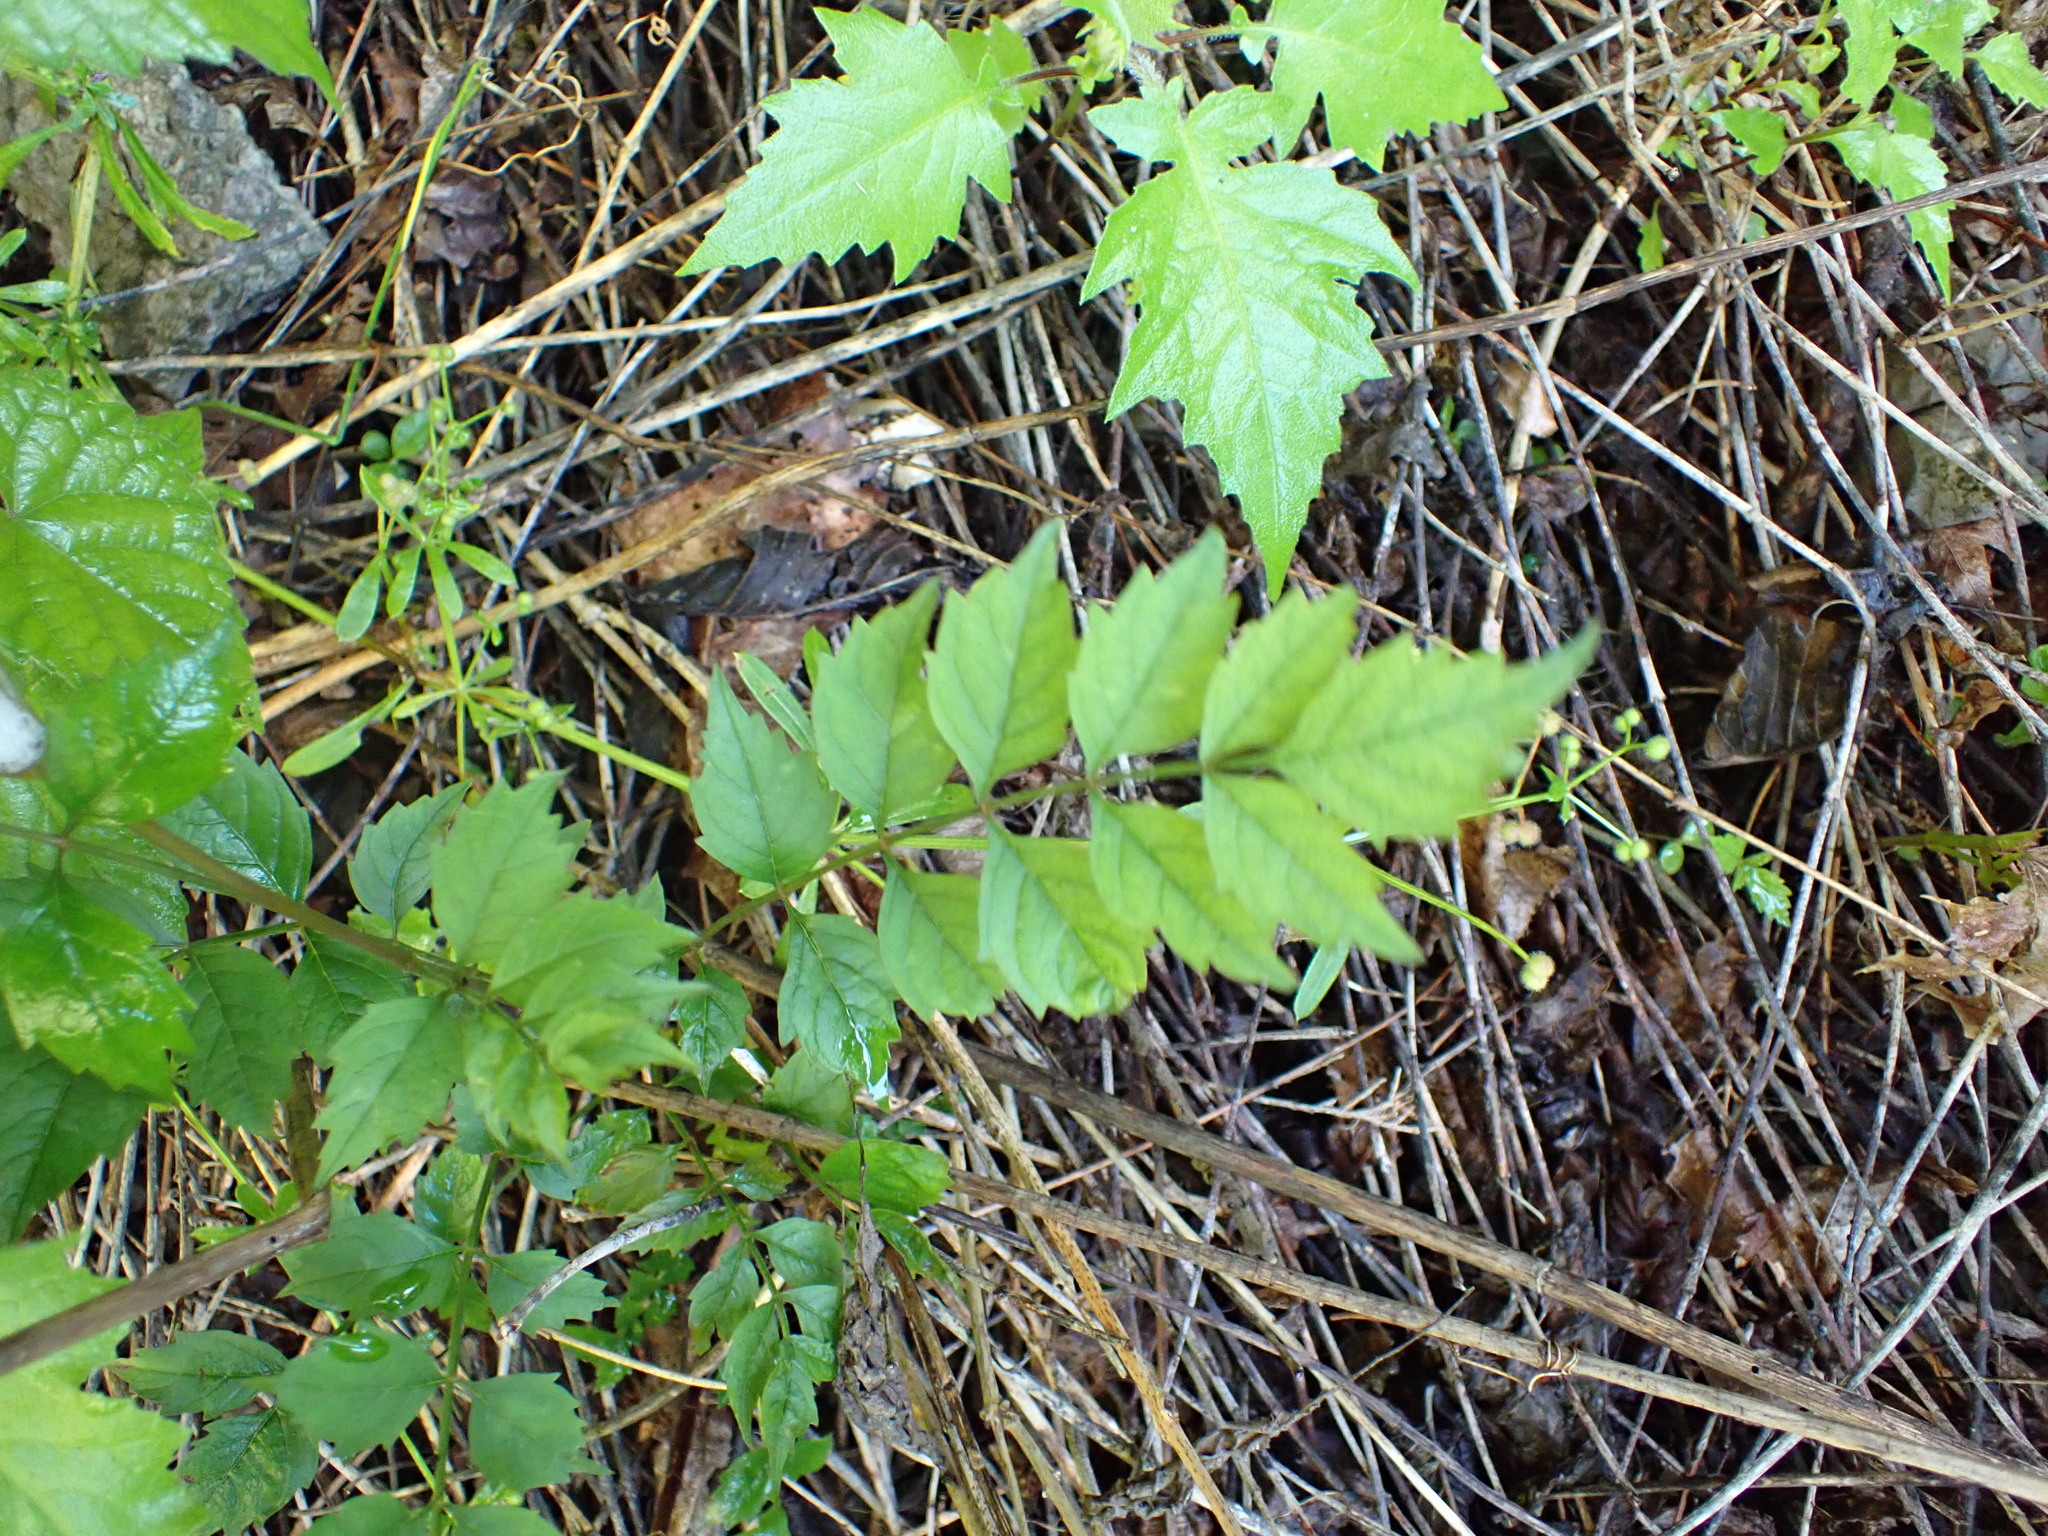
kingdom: Plantae
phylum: Tracheophyta
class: Magnoliopsida
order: Lamiales
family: Bignoniaceae
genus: Campsis
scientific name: Campsis radicans
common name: Trumpet-creeper
